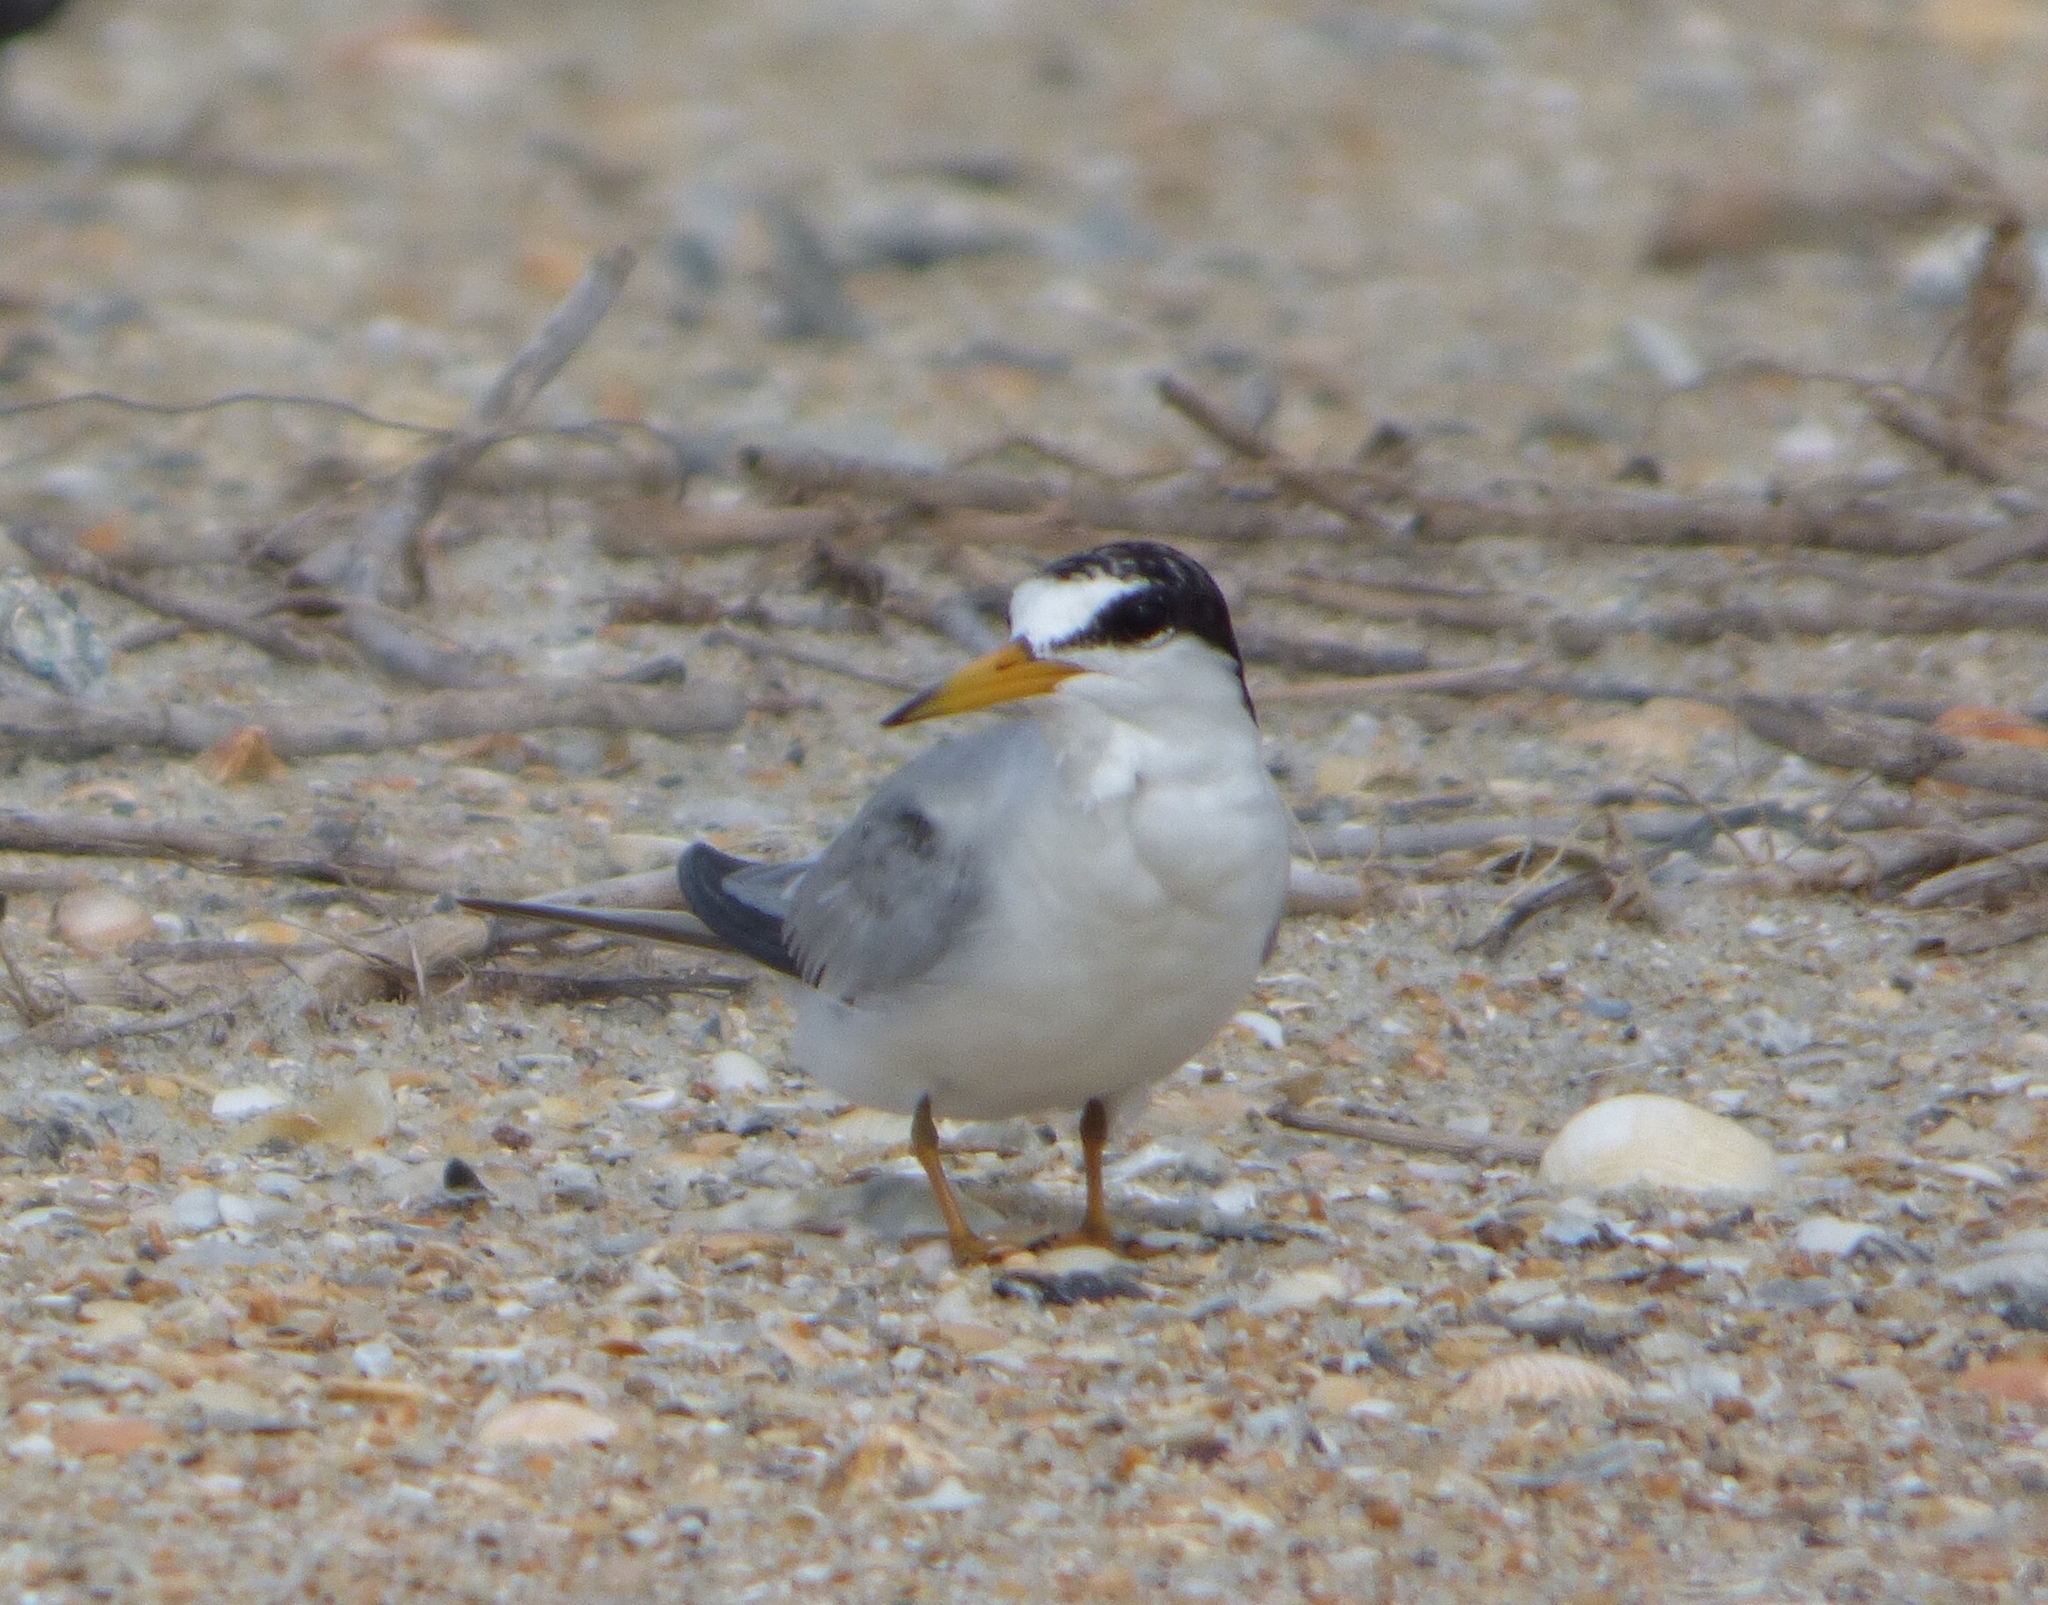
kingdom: Animalia
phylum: Chordata
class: Aves
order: Charadriiformes
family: Laridae
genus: Sternula
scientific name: Sternula antillarum
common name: Least tern
